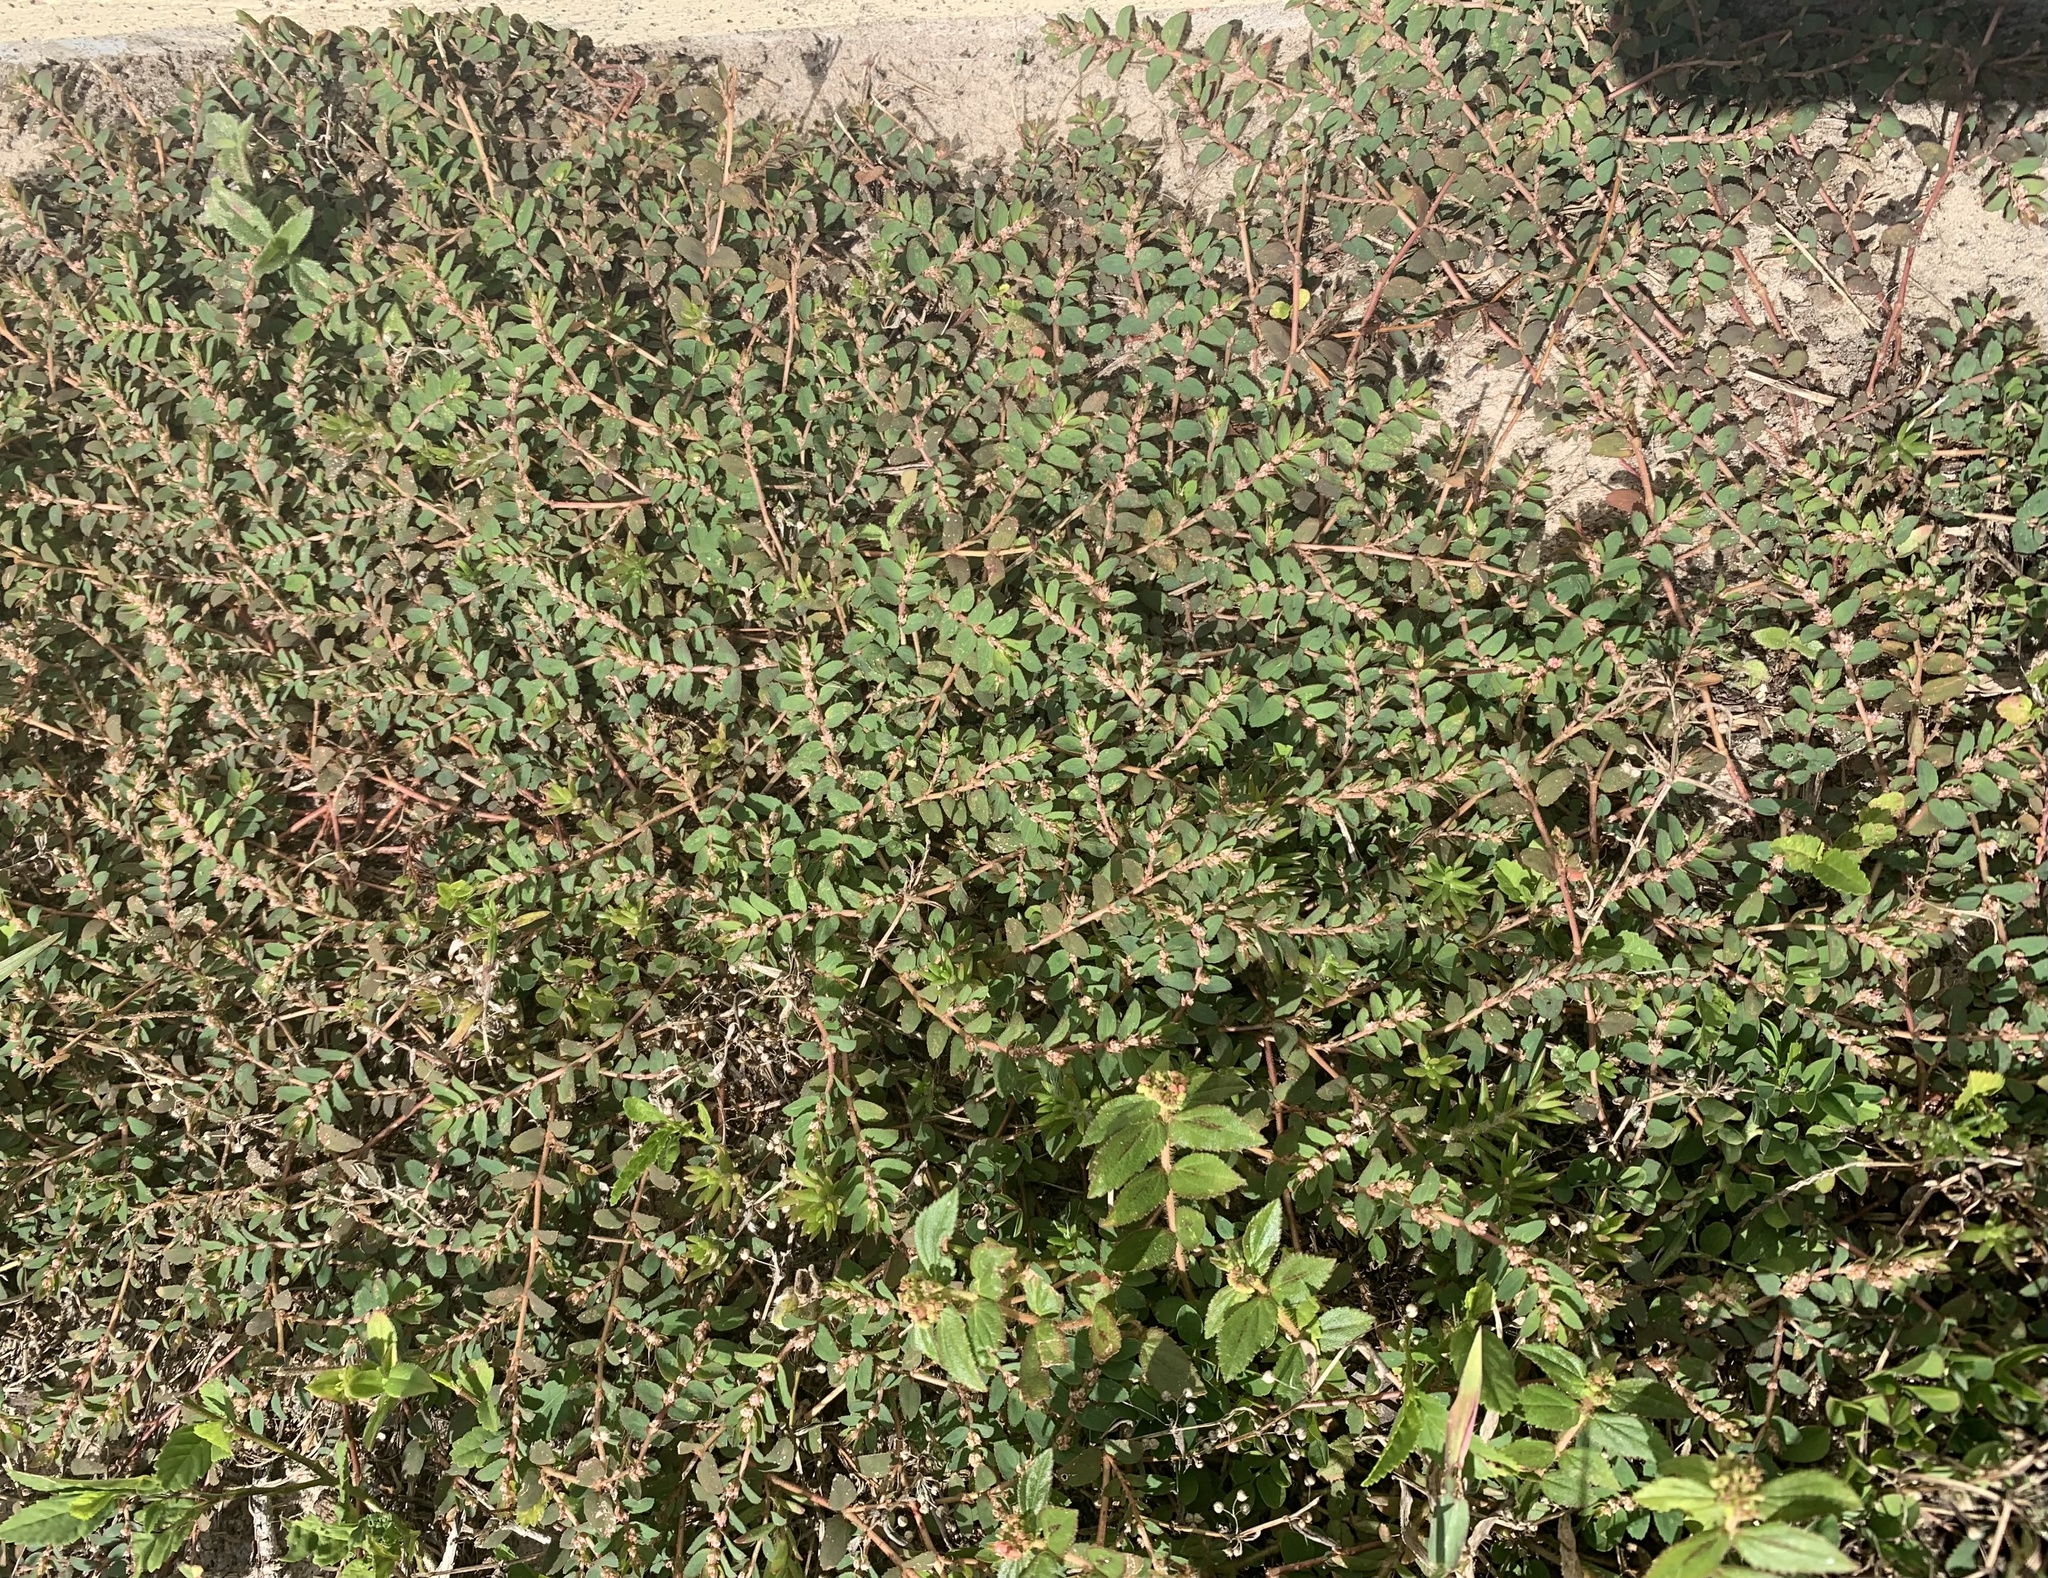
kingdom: Plantae
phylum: Tracheophyta
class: Magnoliopsida
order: Malpighiales
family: Euphorbiaceae
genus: Euphorbia
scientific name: Euphorbia thymifolia
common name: Gulf sandmat
